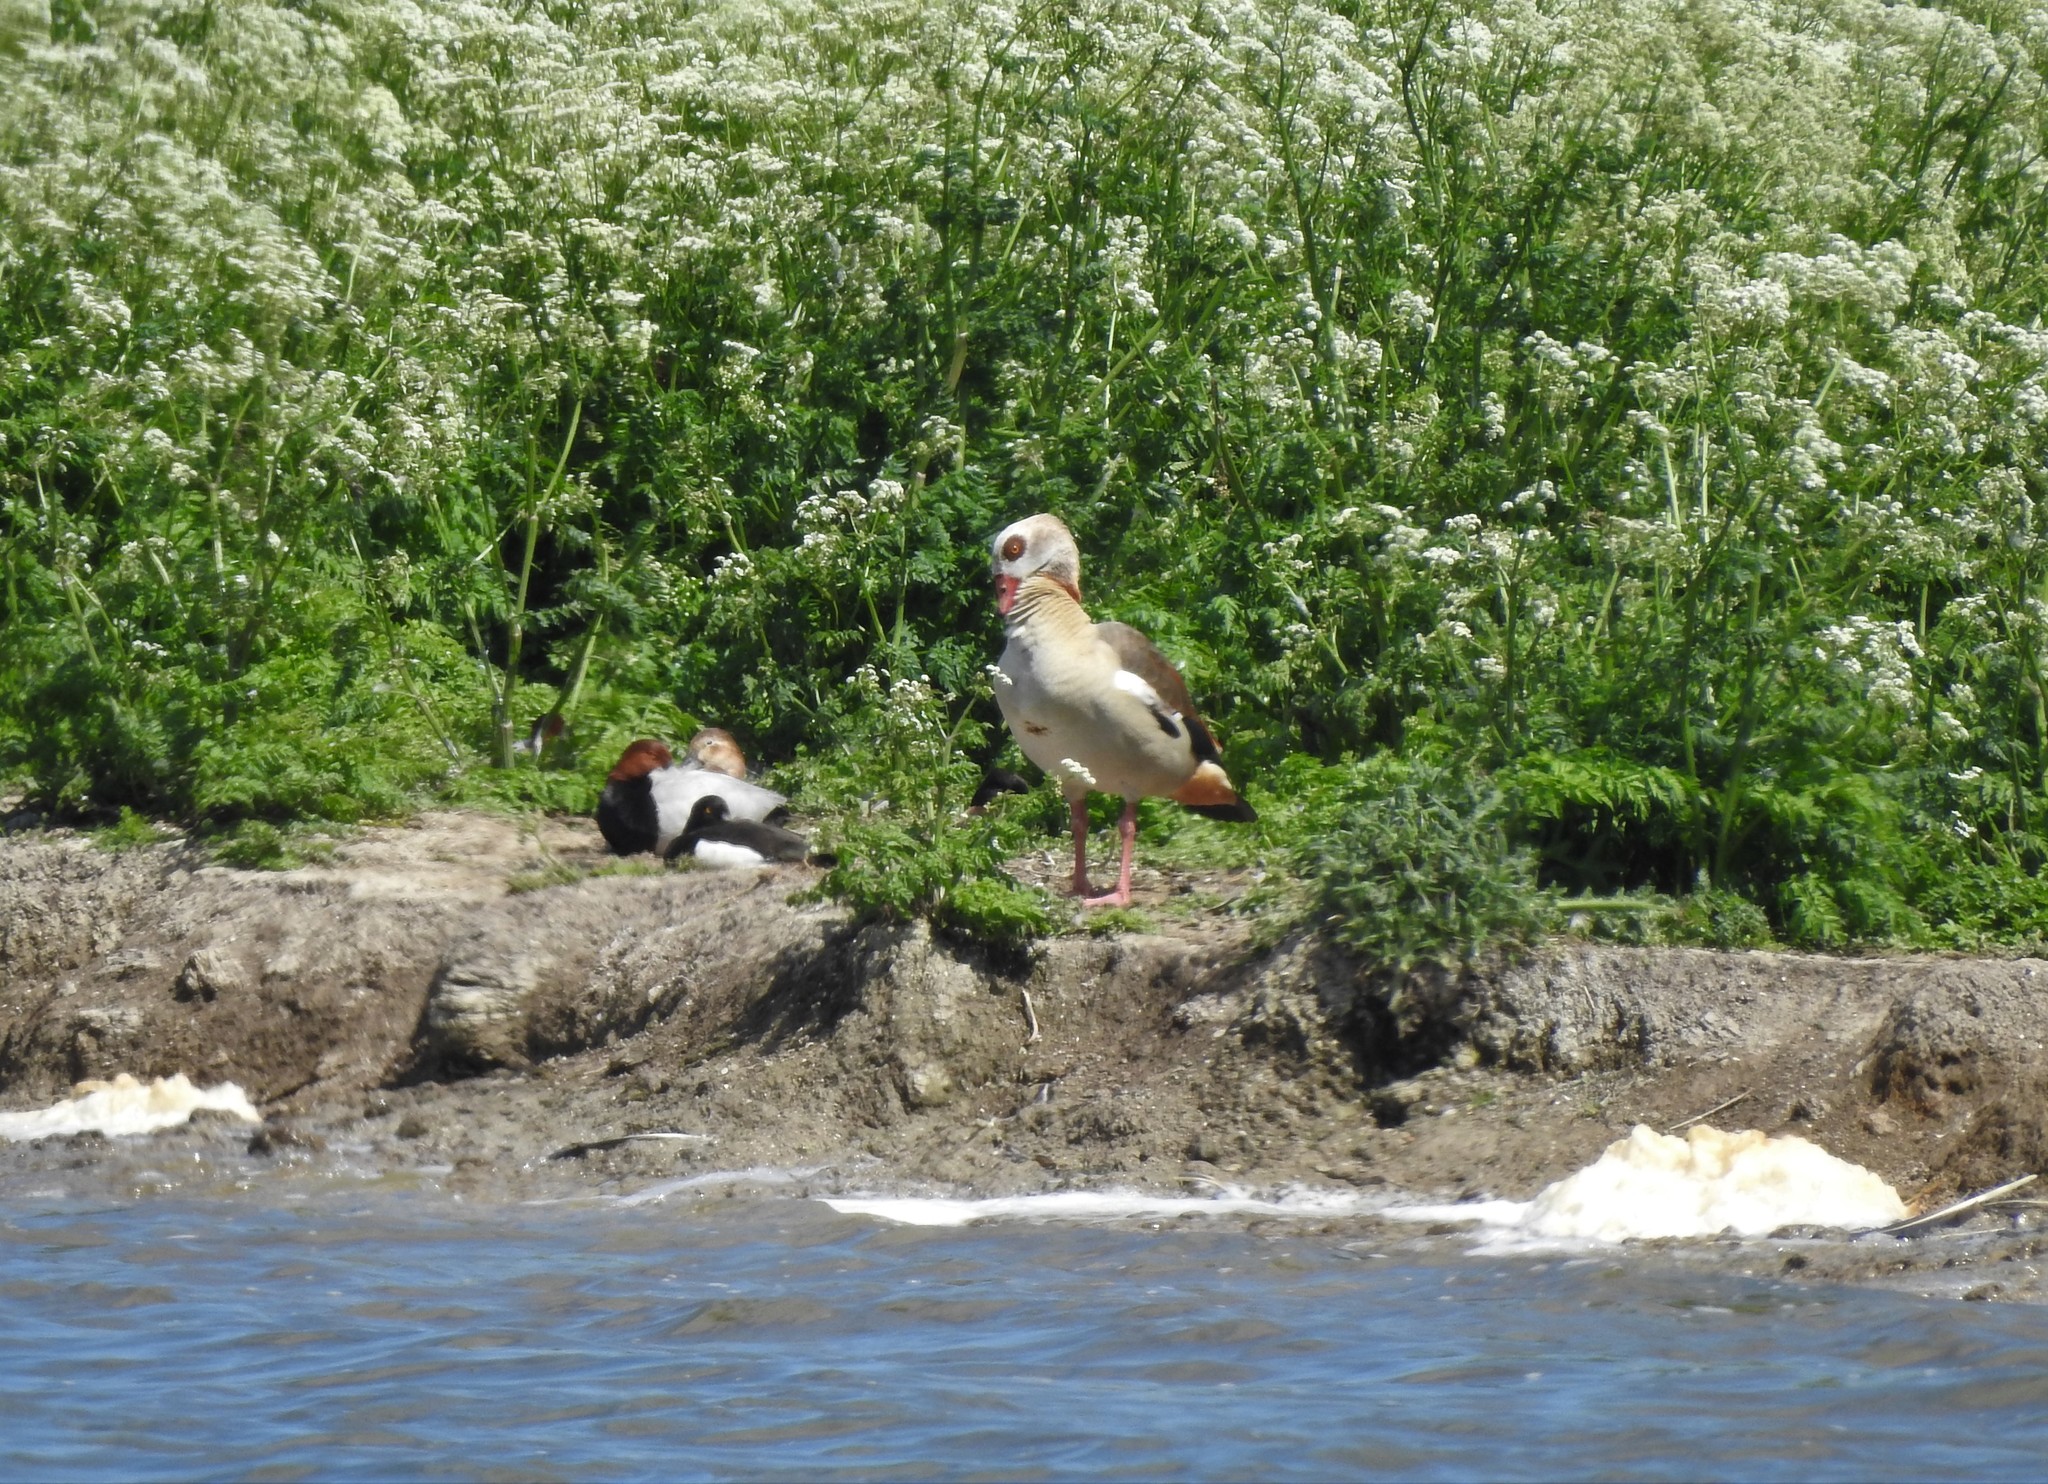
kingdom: Animalia
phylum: Chordata
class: Aves
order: Anseriformes
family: Anatidae
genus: Alopochen
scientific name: Alopochen aegyptiaca
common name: Egyptian goose
